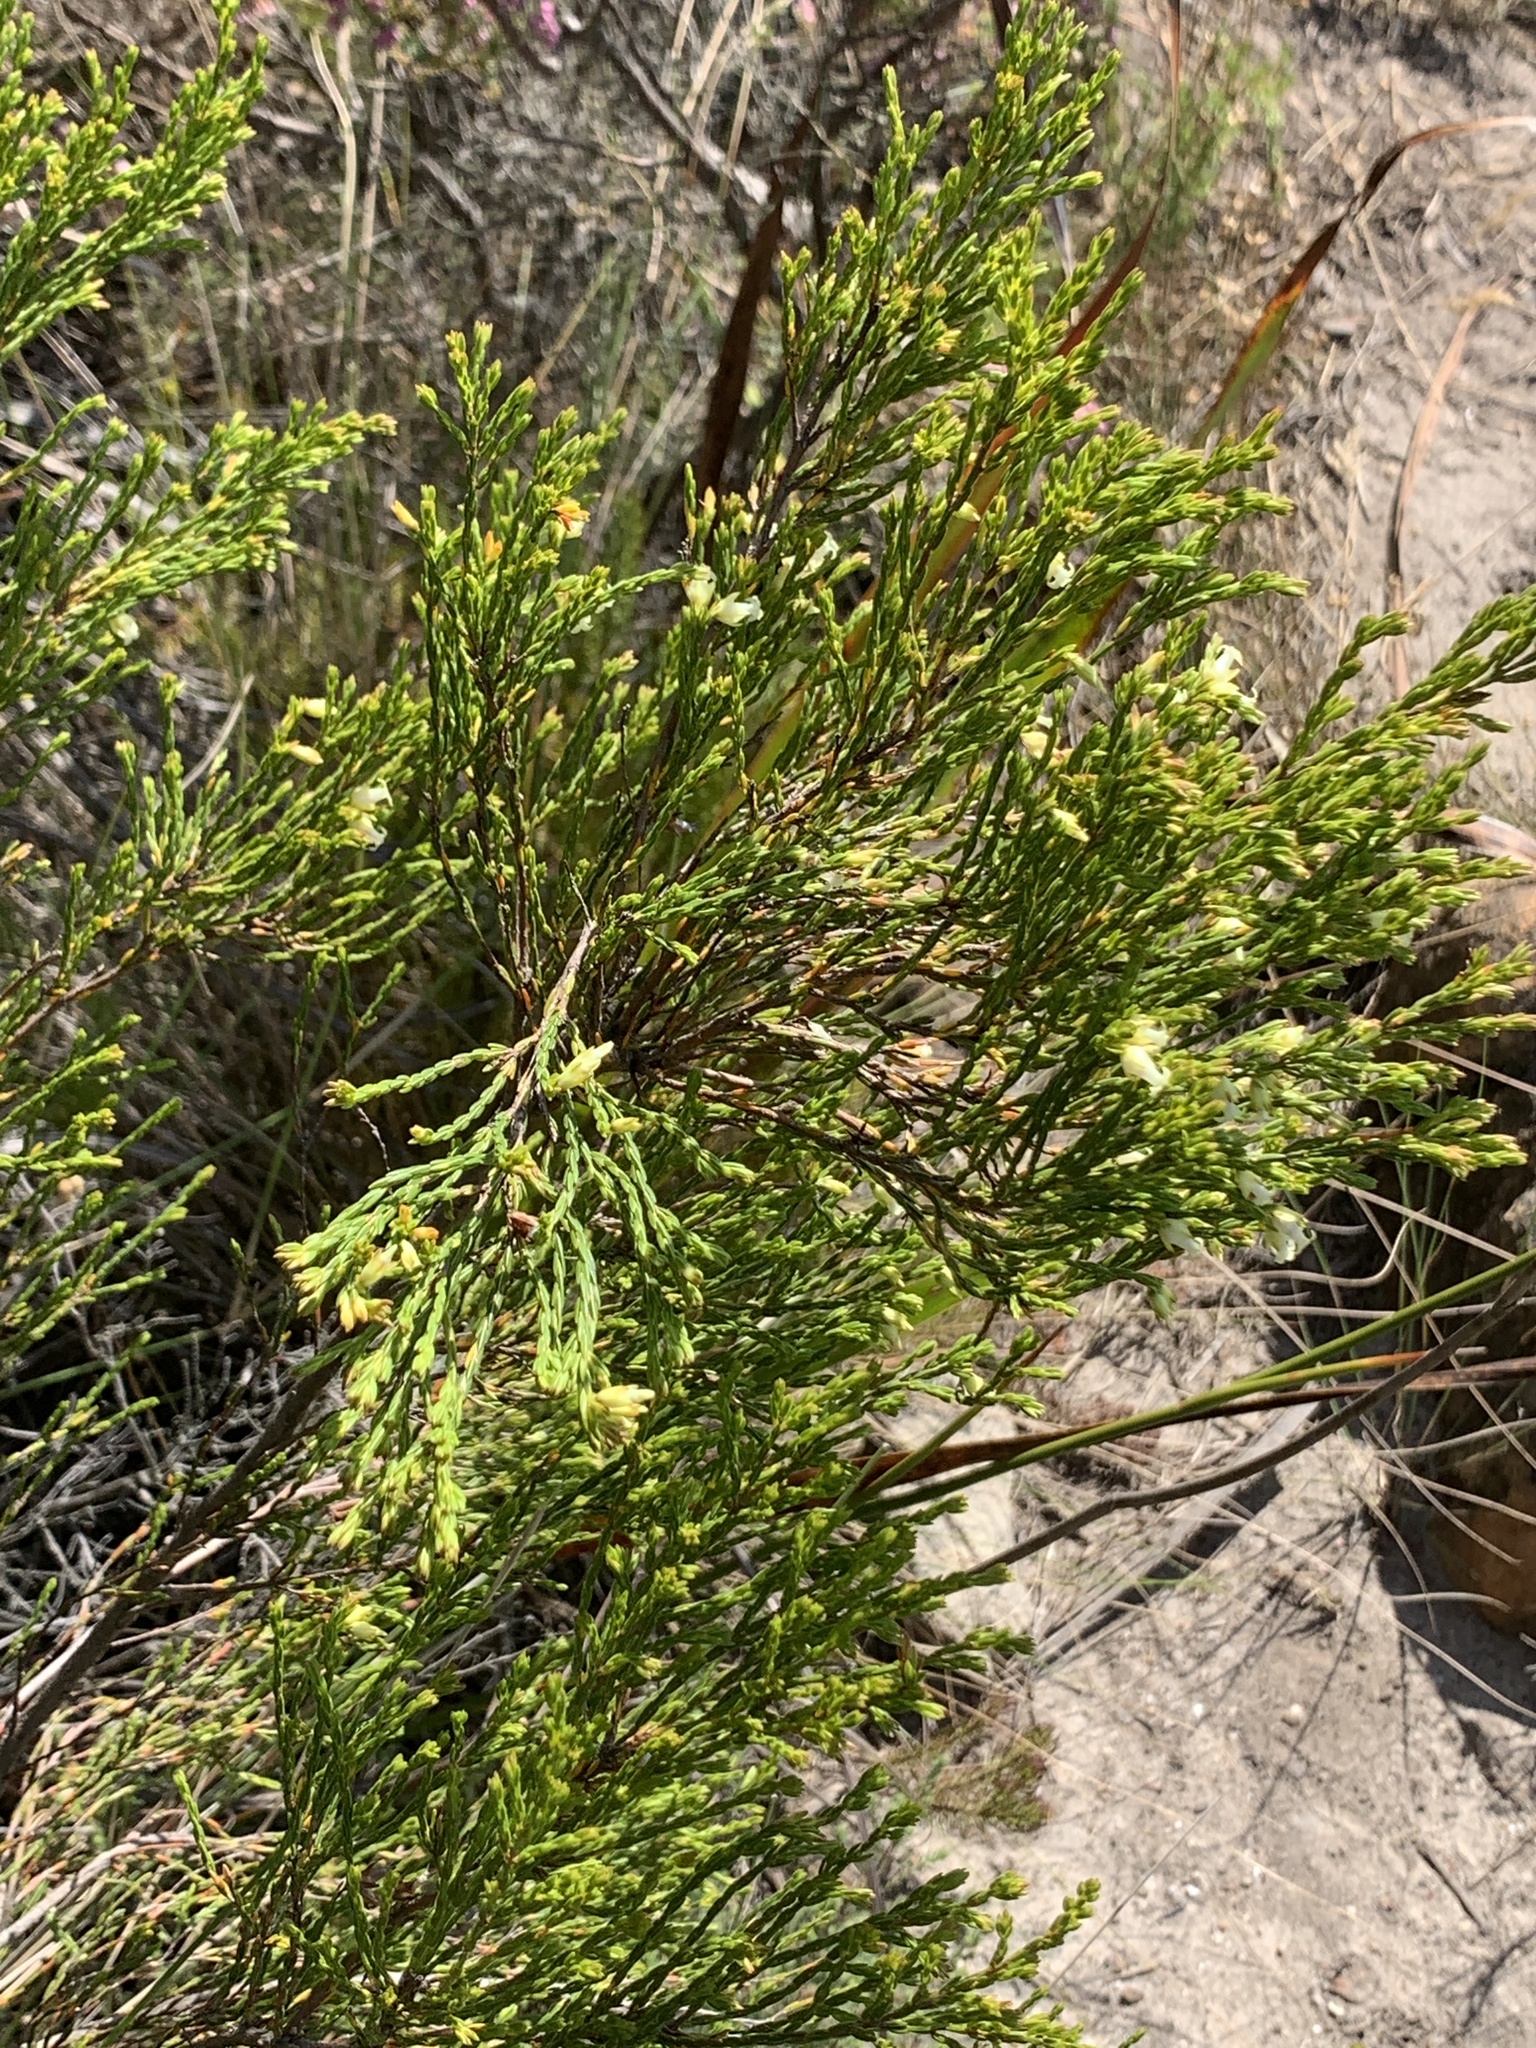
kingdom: Plantae
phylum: Tracheophyta
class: Magnoliopsida
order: Ericales
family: Ericaceae
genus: Erica
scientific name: Erica lutea
